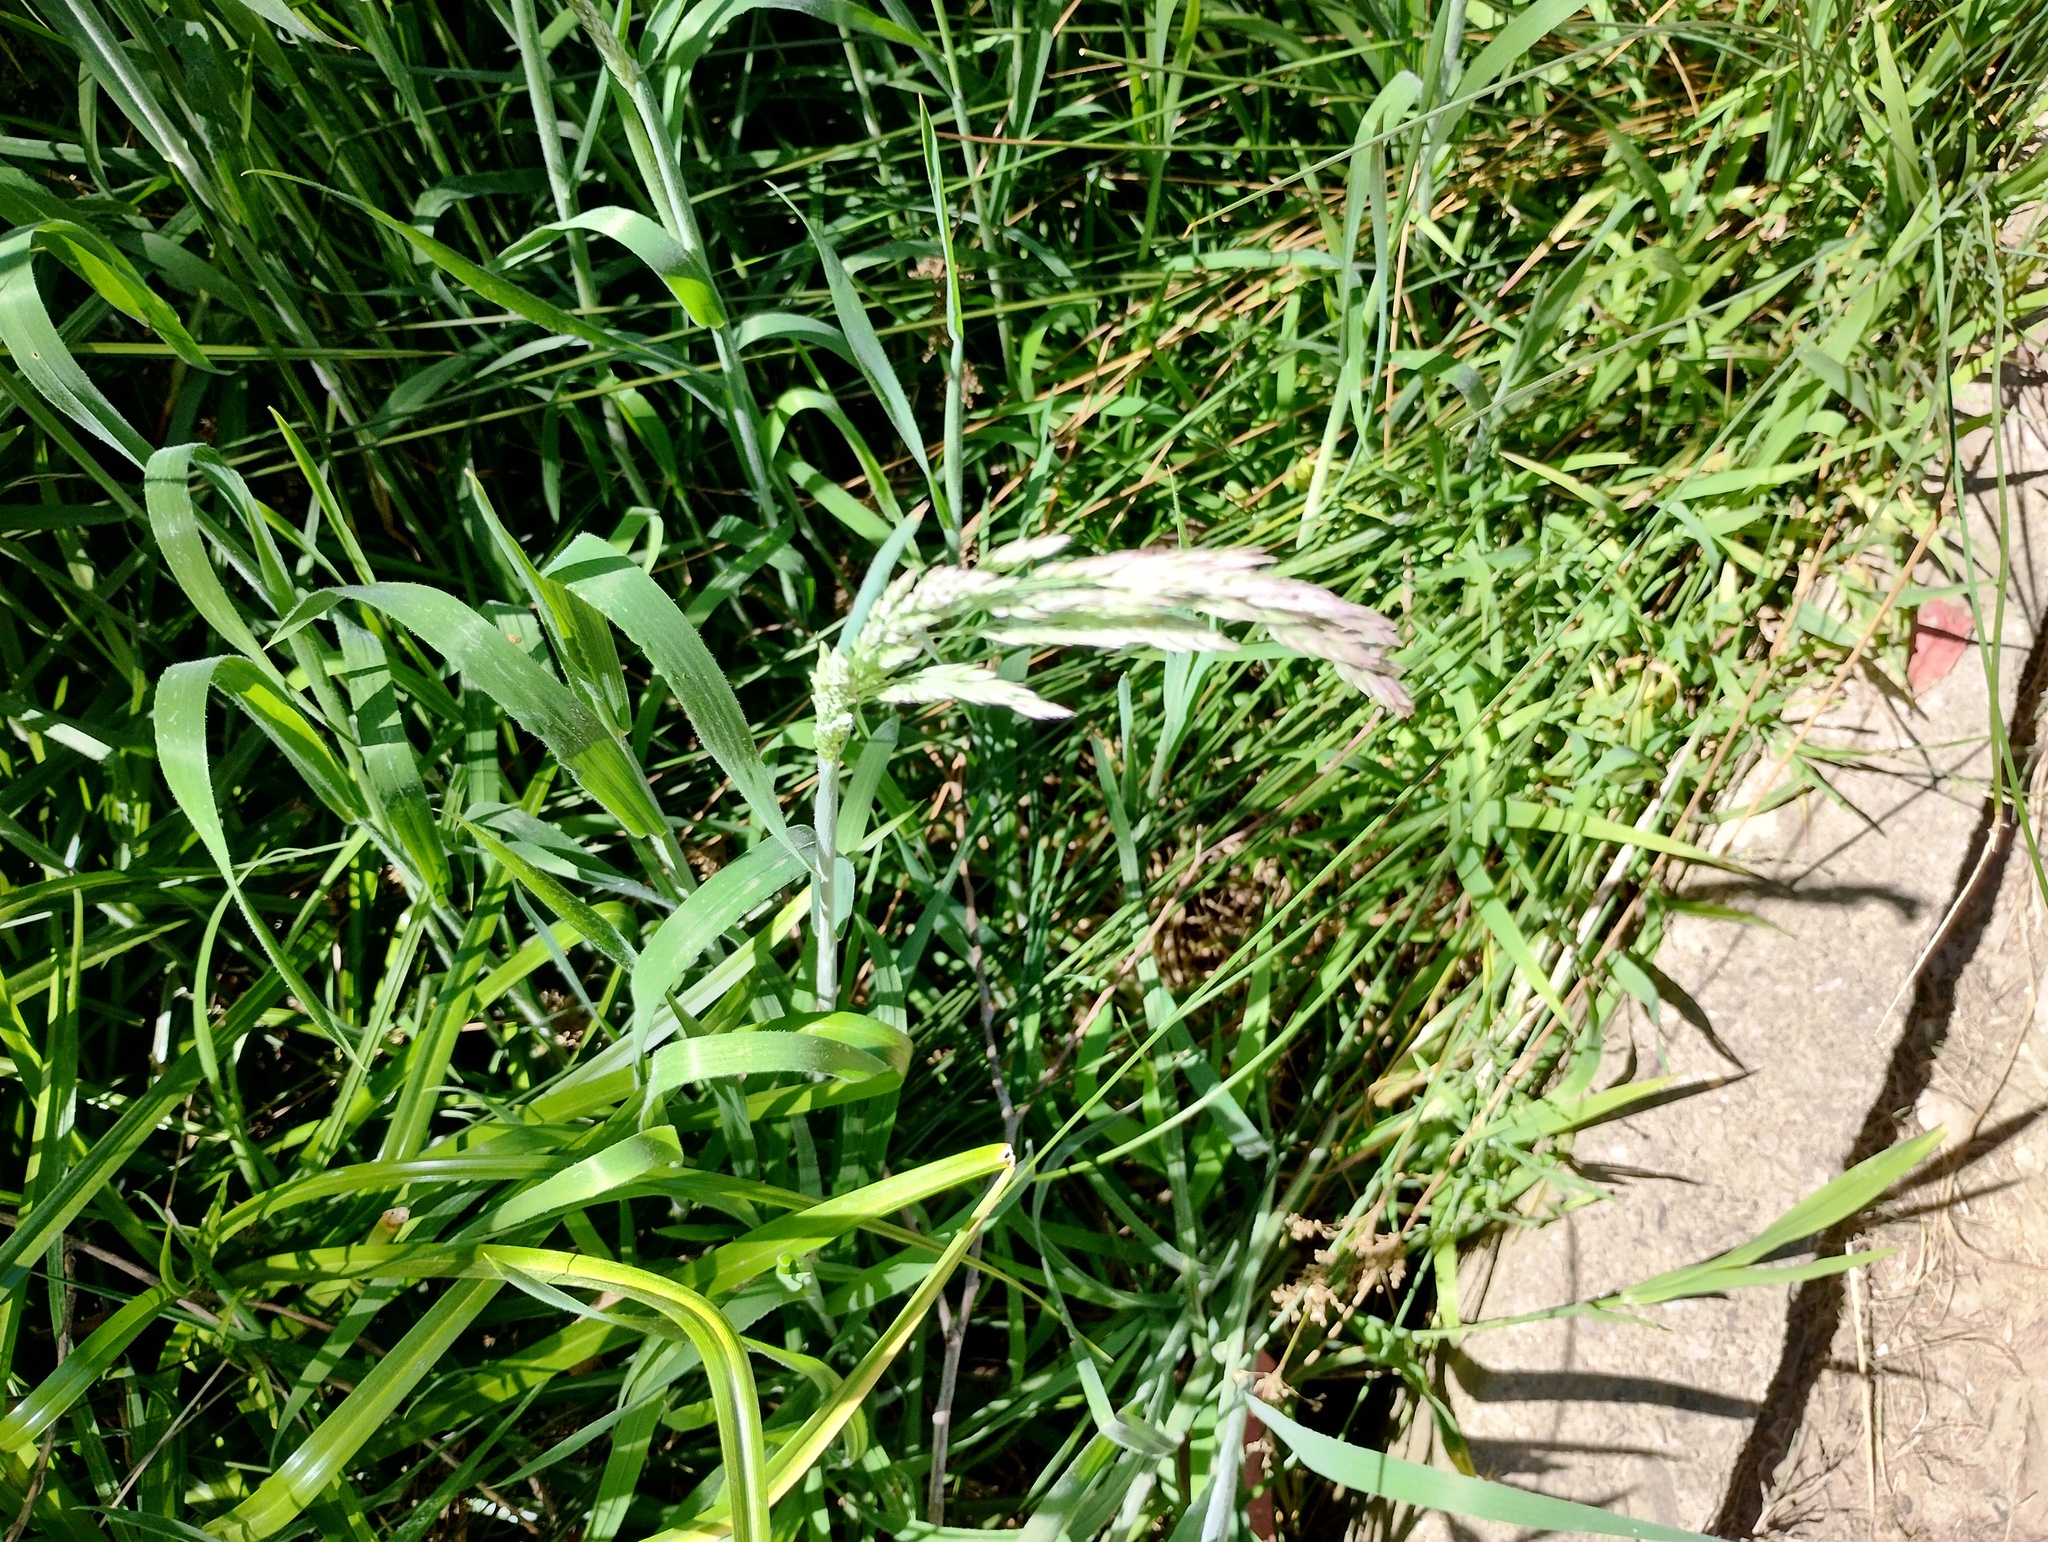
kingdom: Plantae
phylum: Tracheophyta
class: Liliopsida
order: Poales
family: Poaceae
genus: Holcus
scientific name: Holcus lanatus
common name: Yorkshire-fog
